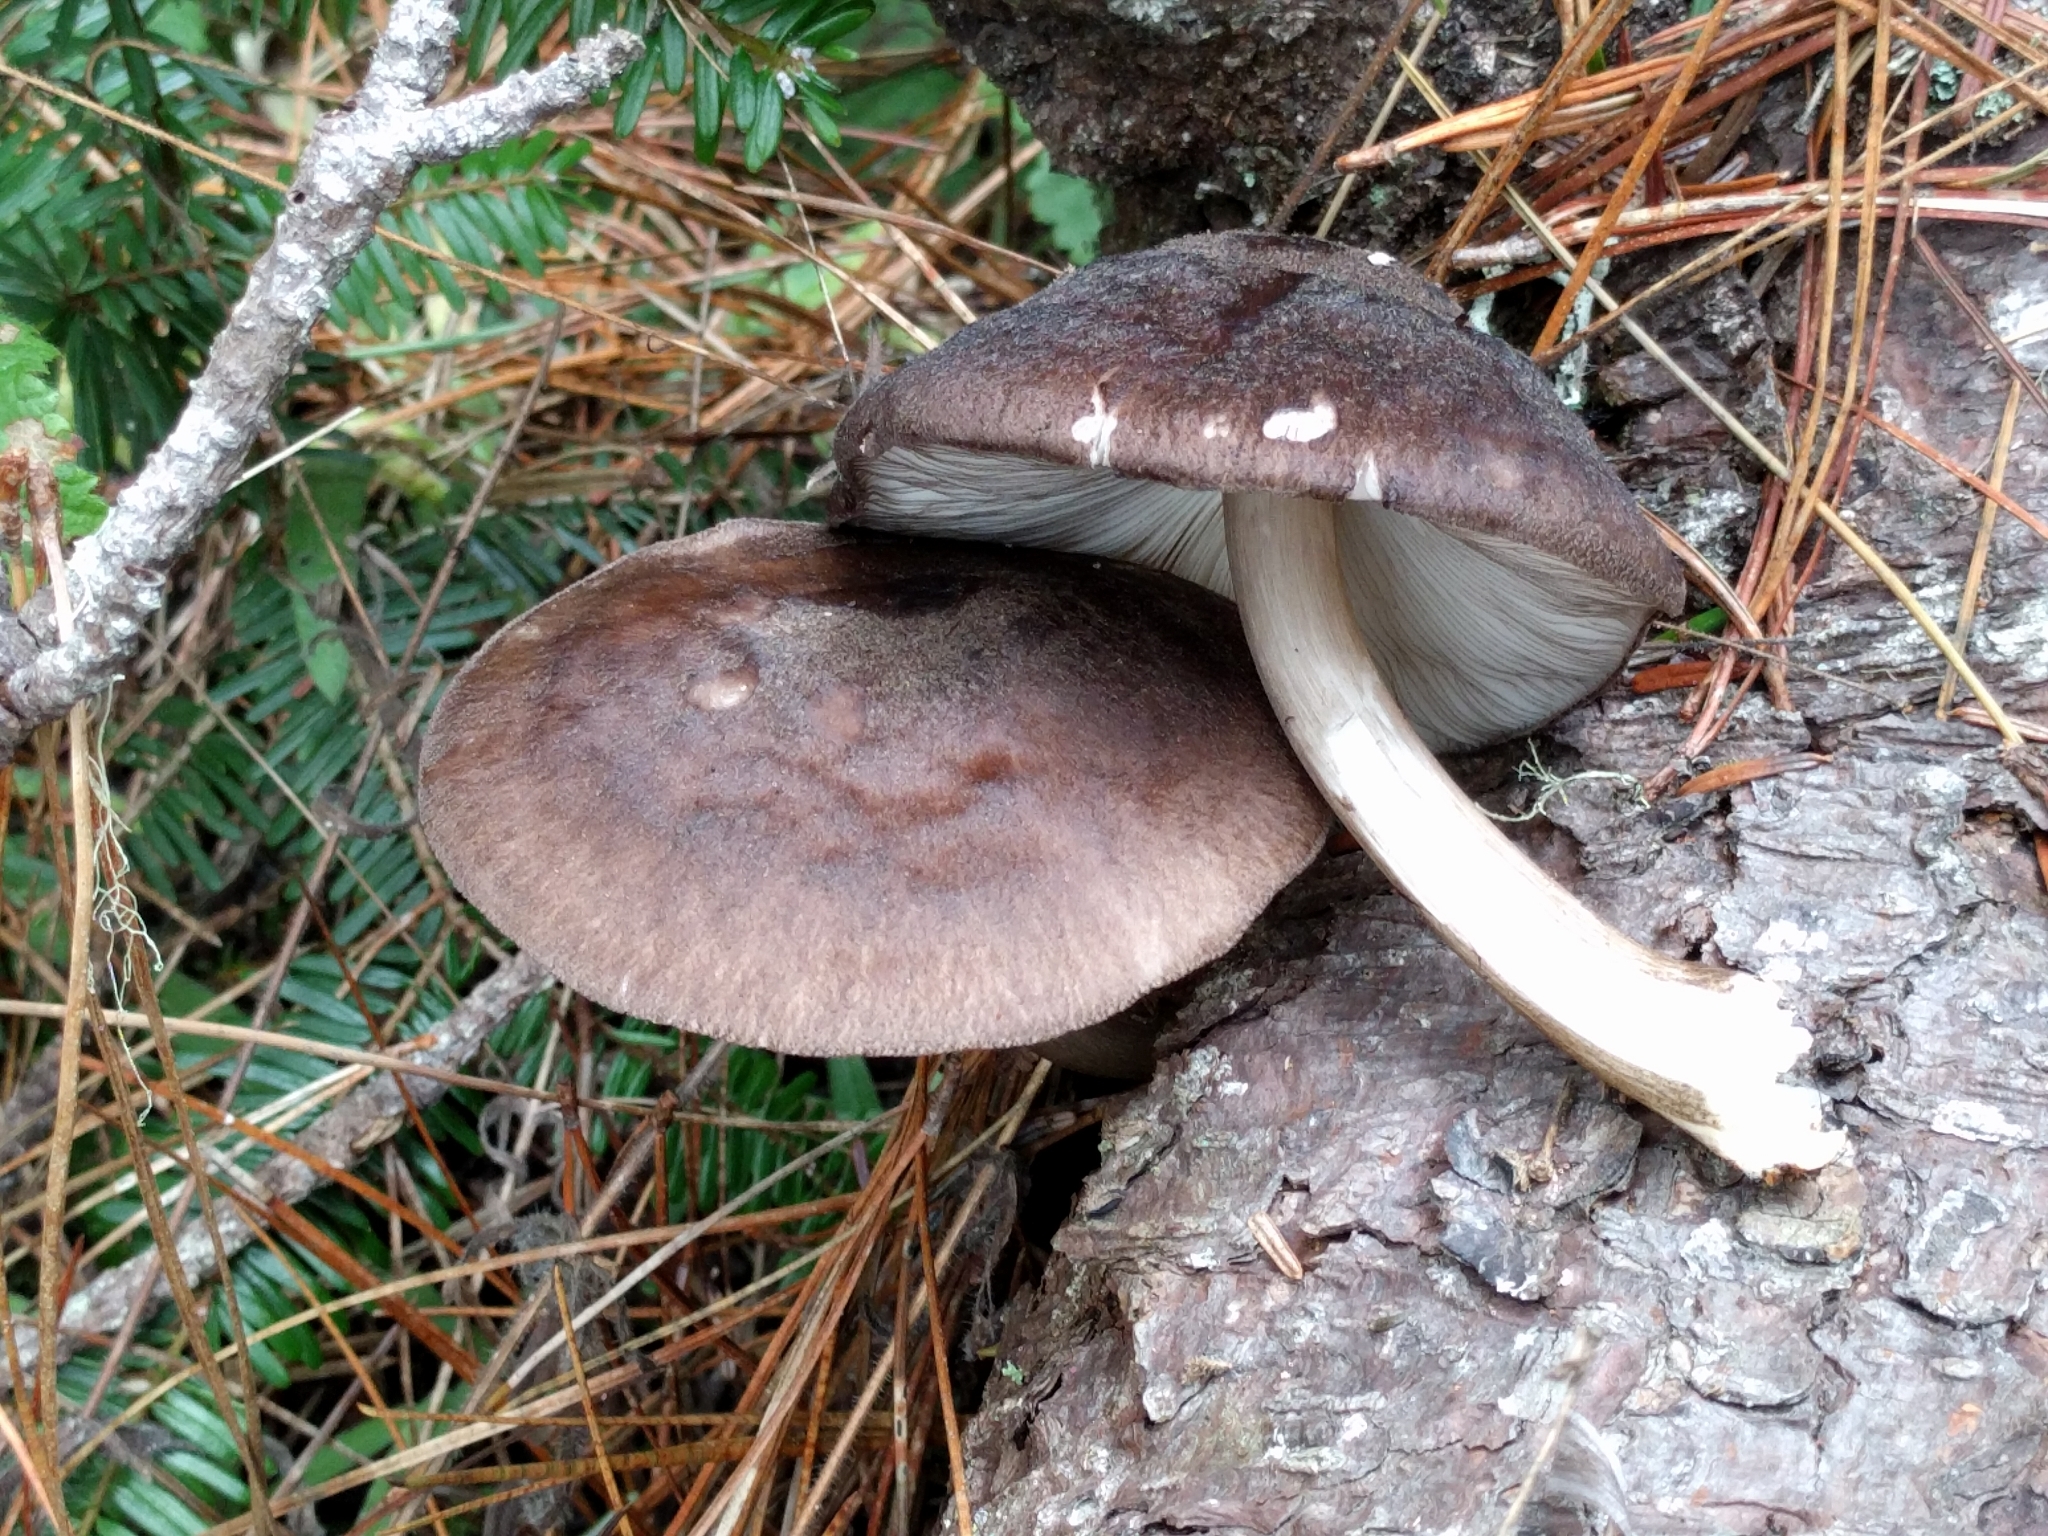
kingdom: Fungi
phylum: Basidiomycota
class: Agaricomycetes
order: Agaricales
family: Pluteaceae
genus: Pluteus
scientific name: Pluteus exilis
